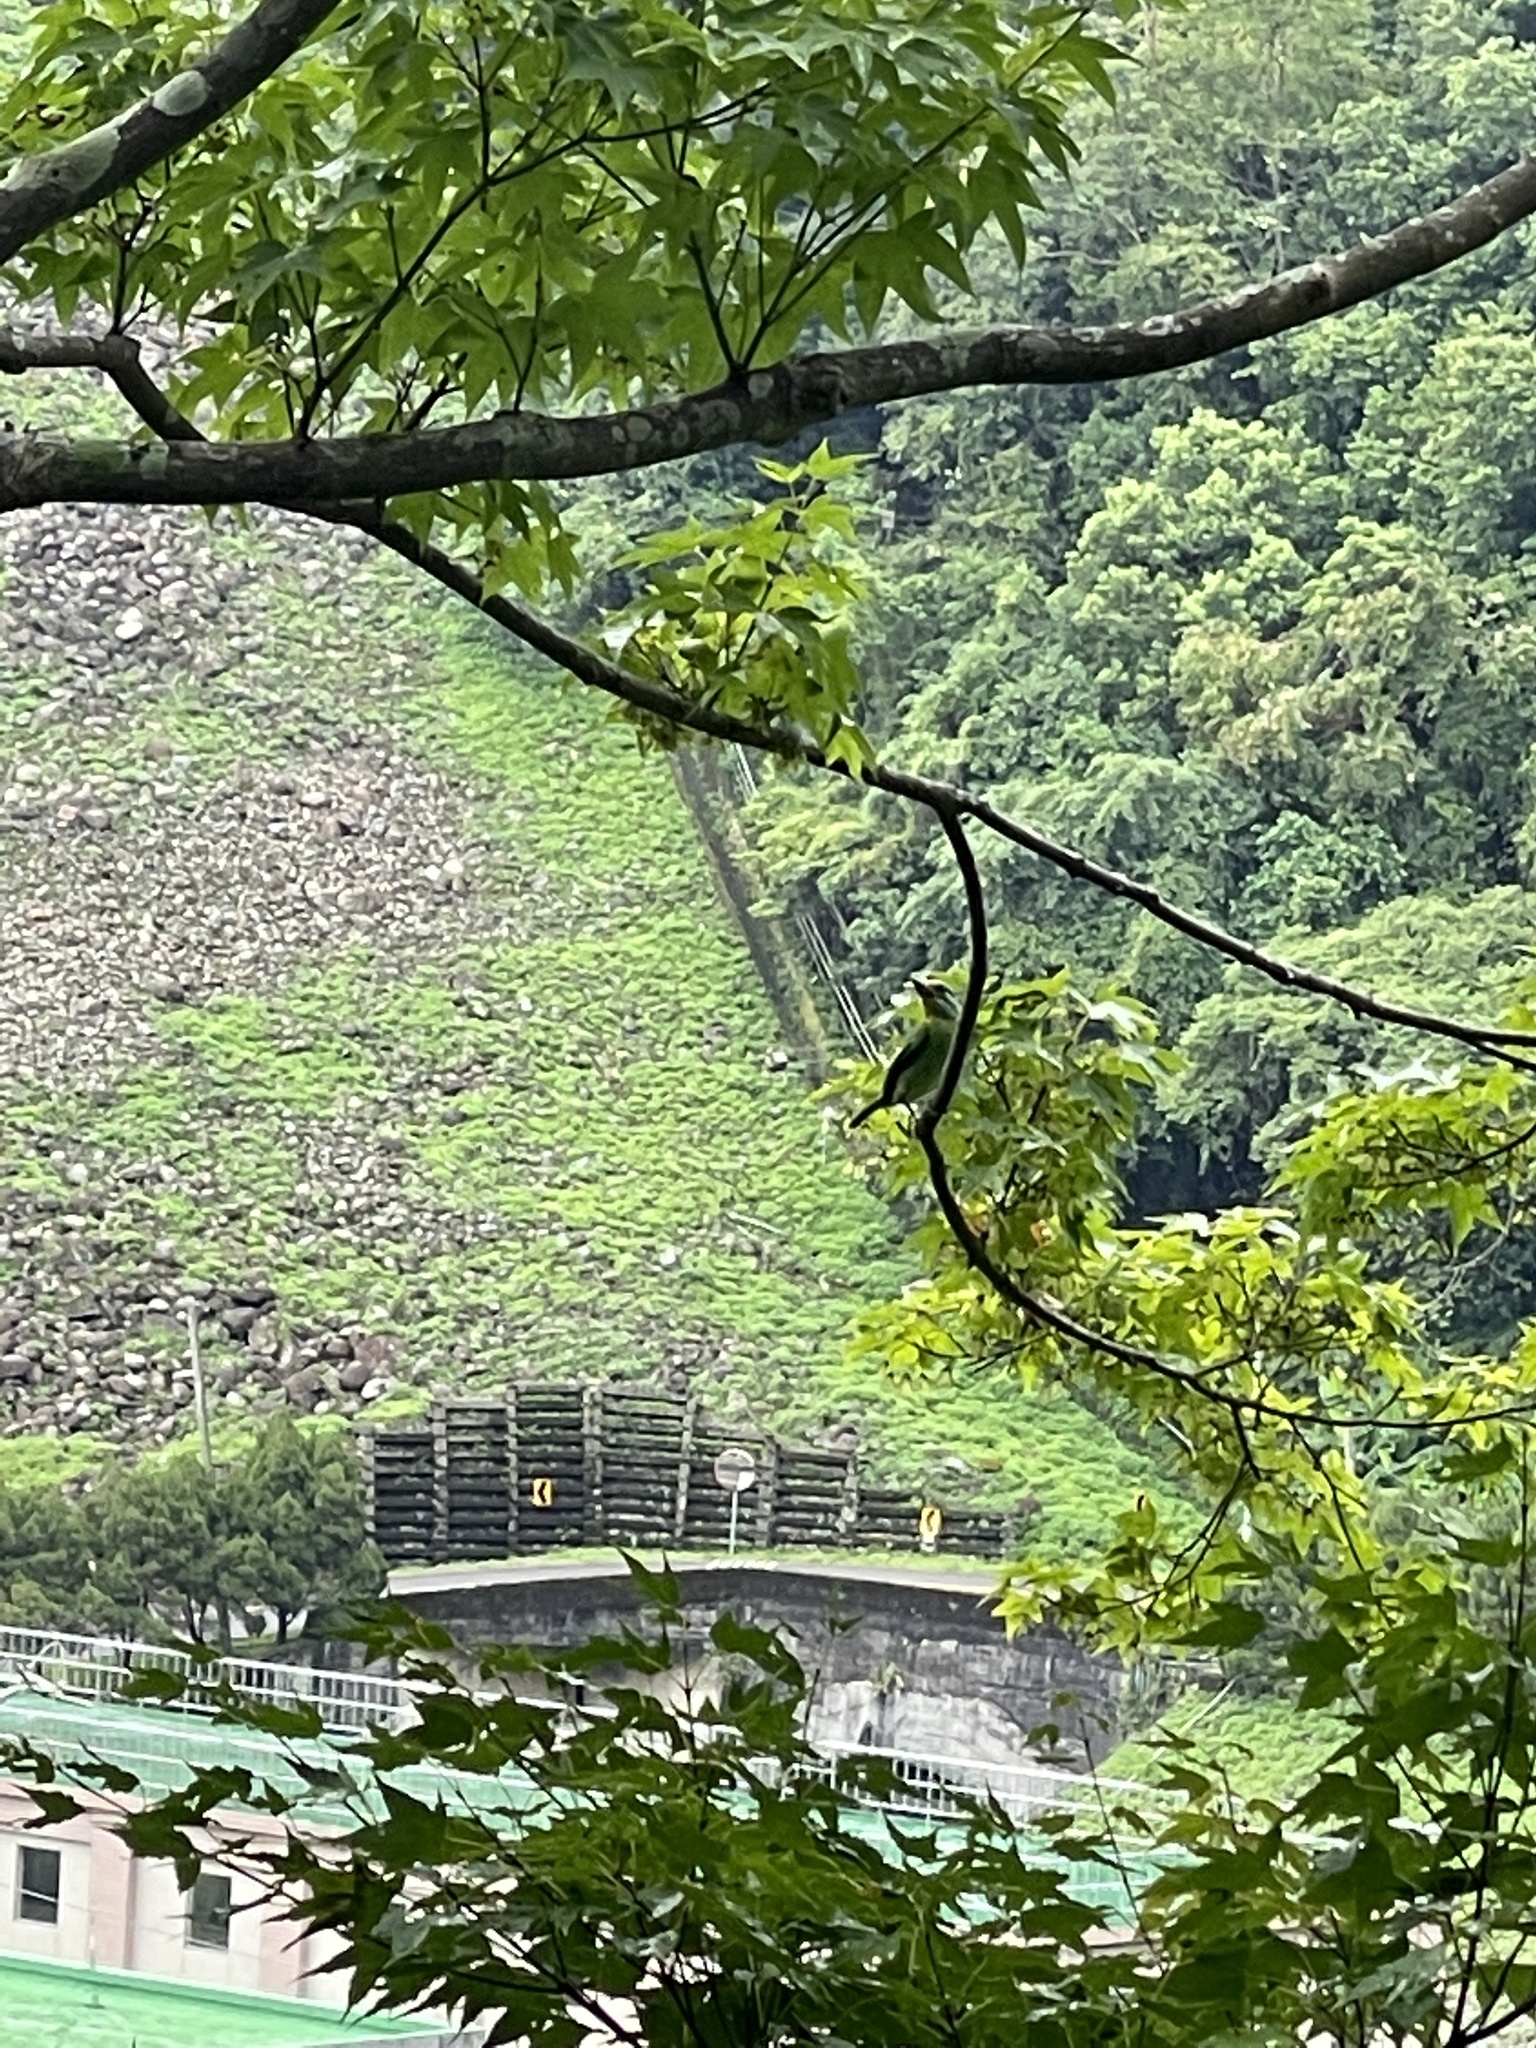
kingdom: Animalia
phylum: Chordata
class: Aves
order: Piciformes
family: Megalaimidae
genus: Psilopogon
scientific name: Psilopogon nuchalis
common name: Taiwan barbet
